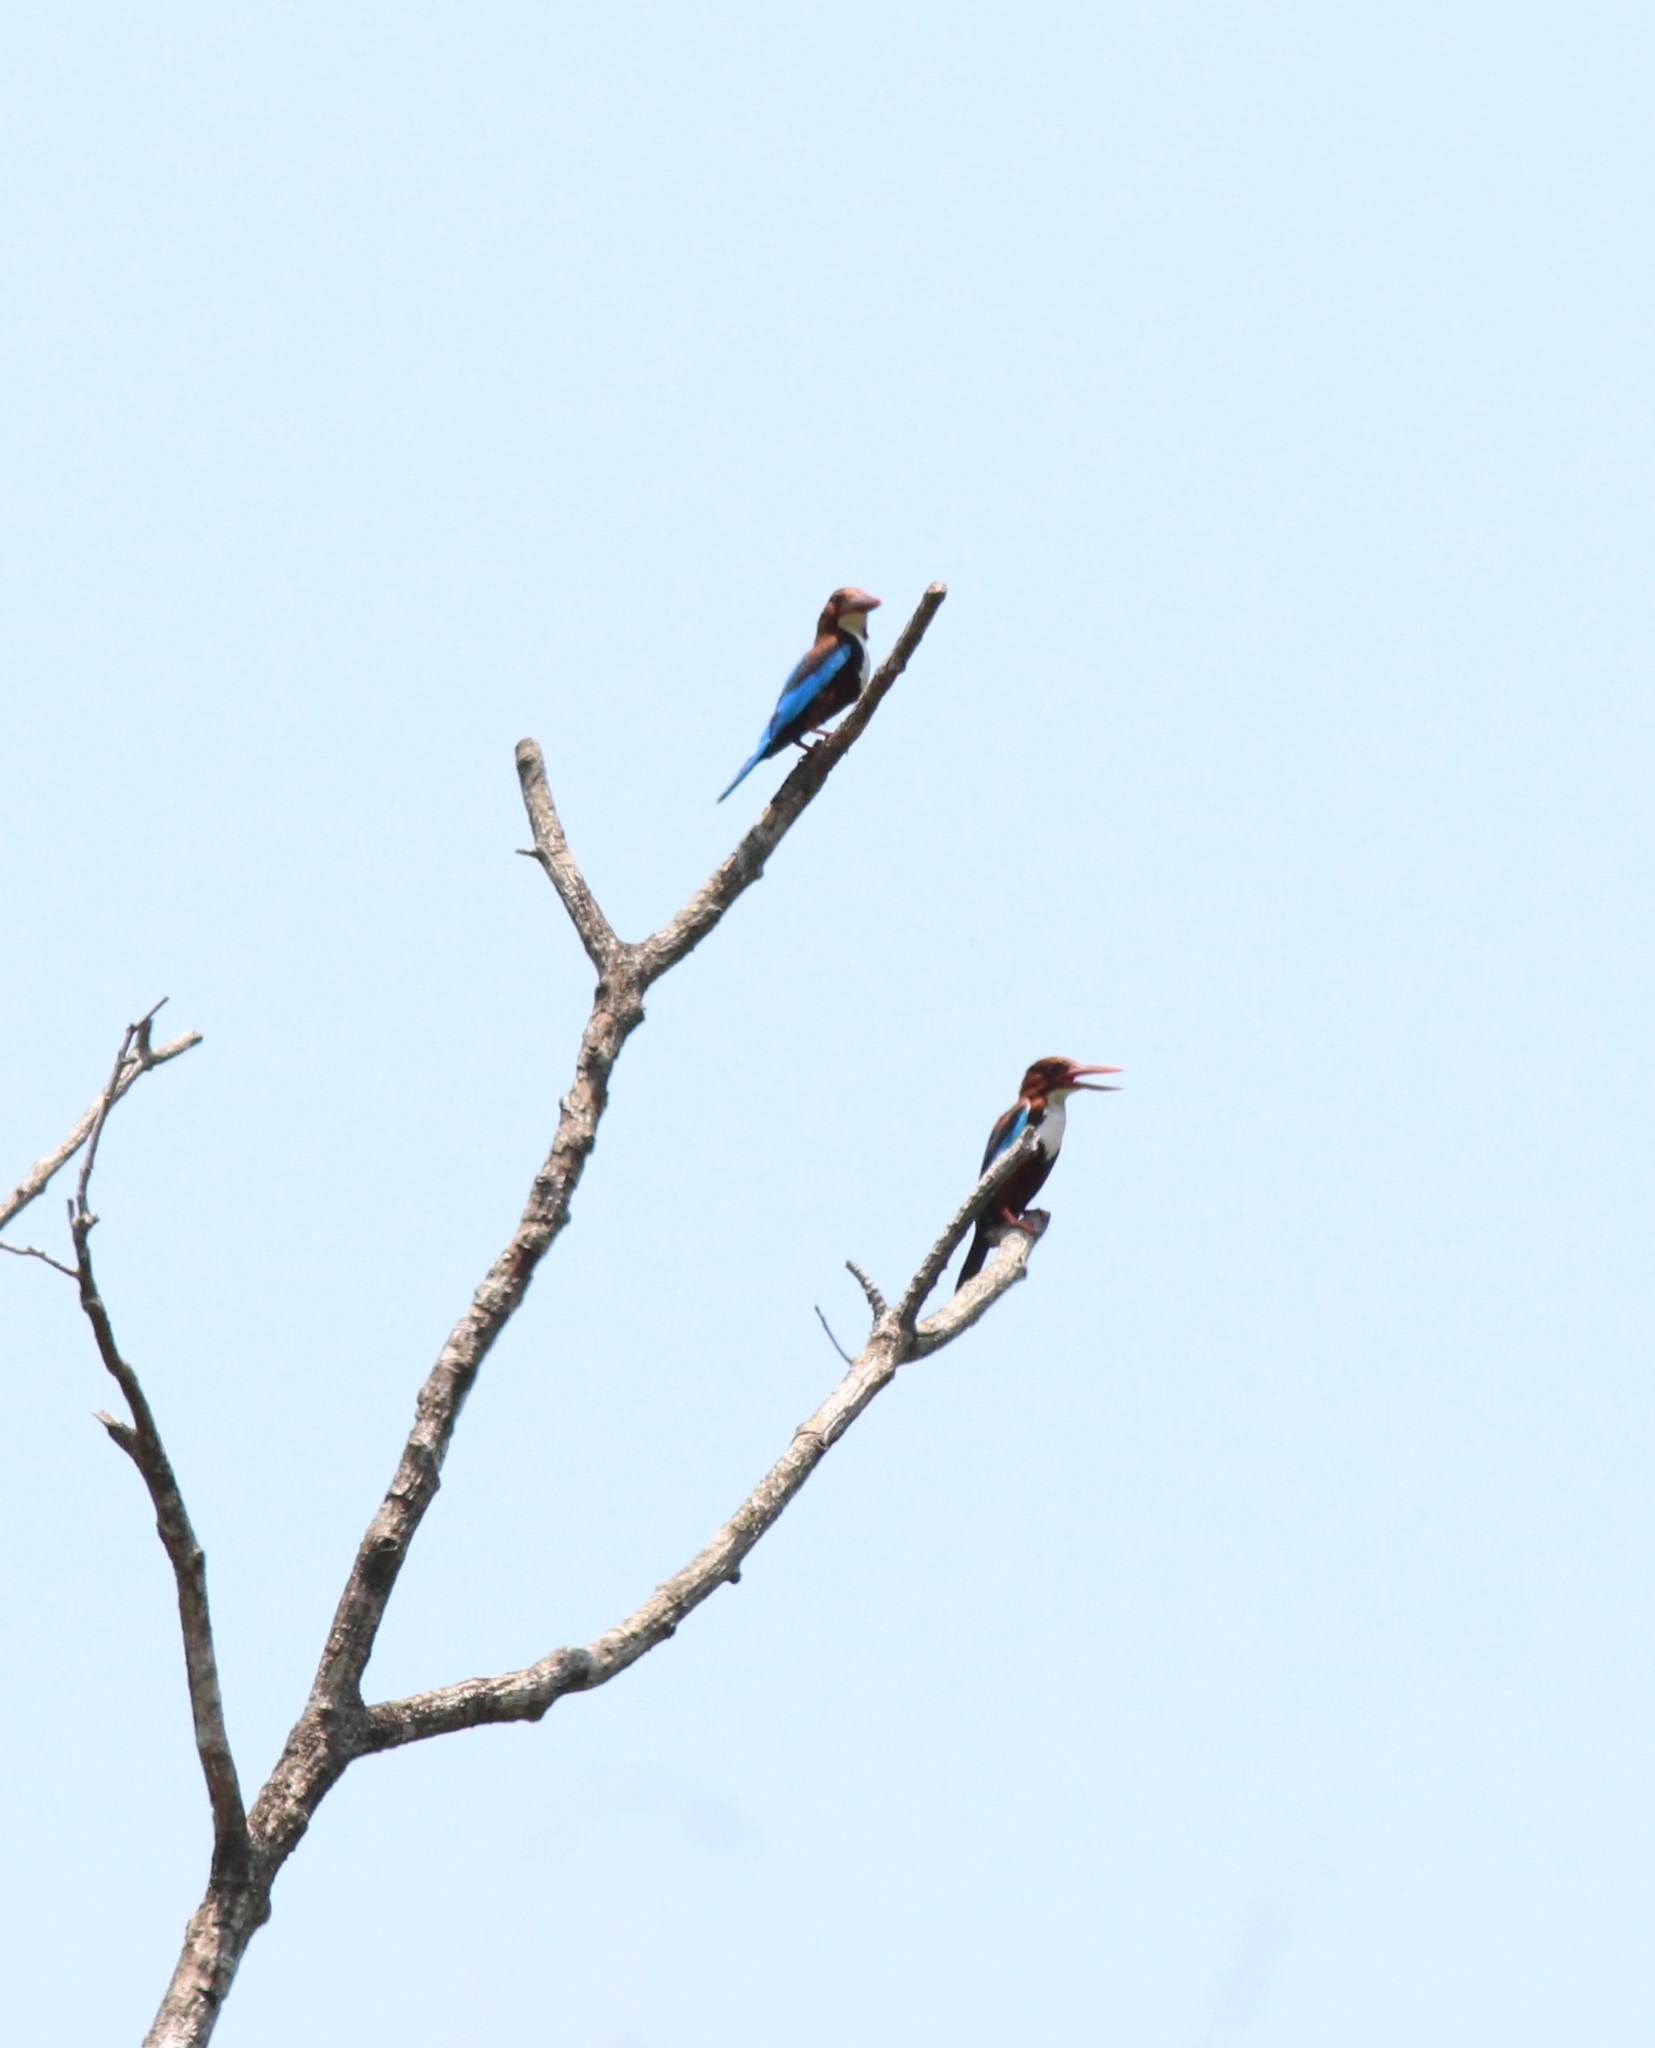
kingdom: Animalia
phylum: Chordata
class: Aves
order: Coraciiformes
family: Alcedinidae
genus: Halcyon
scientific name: Halcyon smyrnensis
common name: White-throated kingfisher
